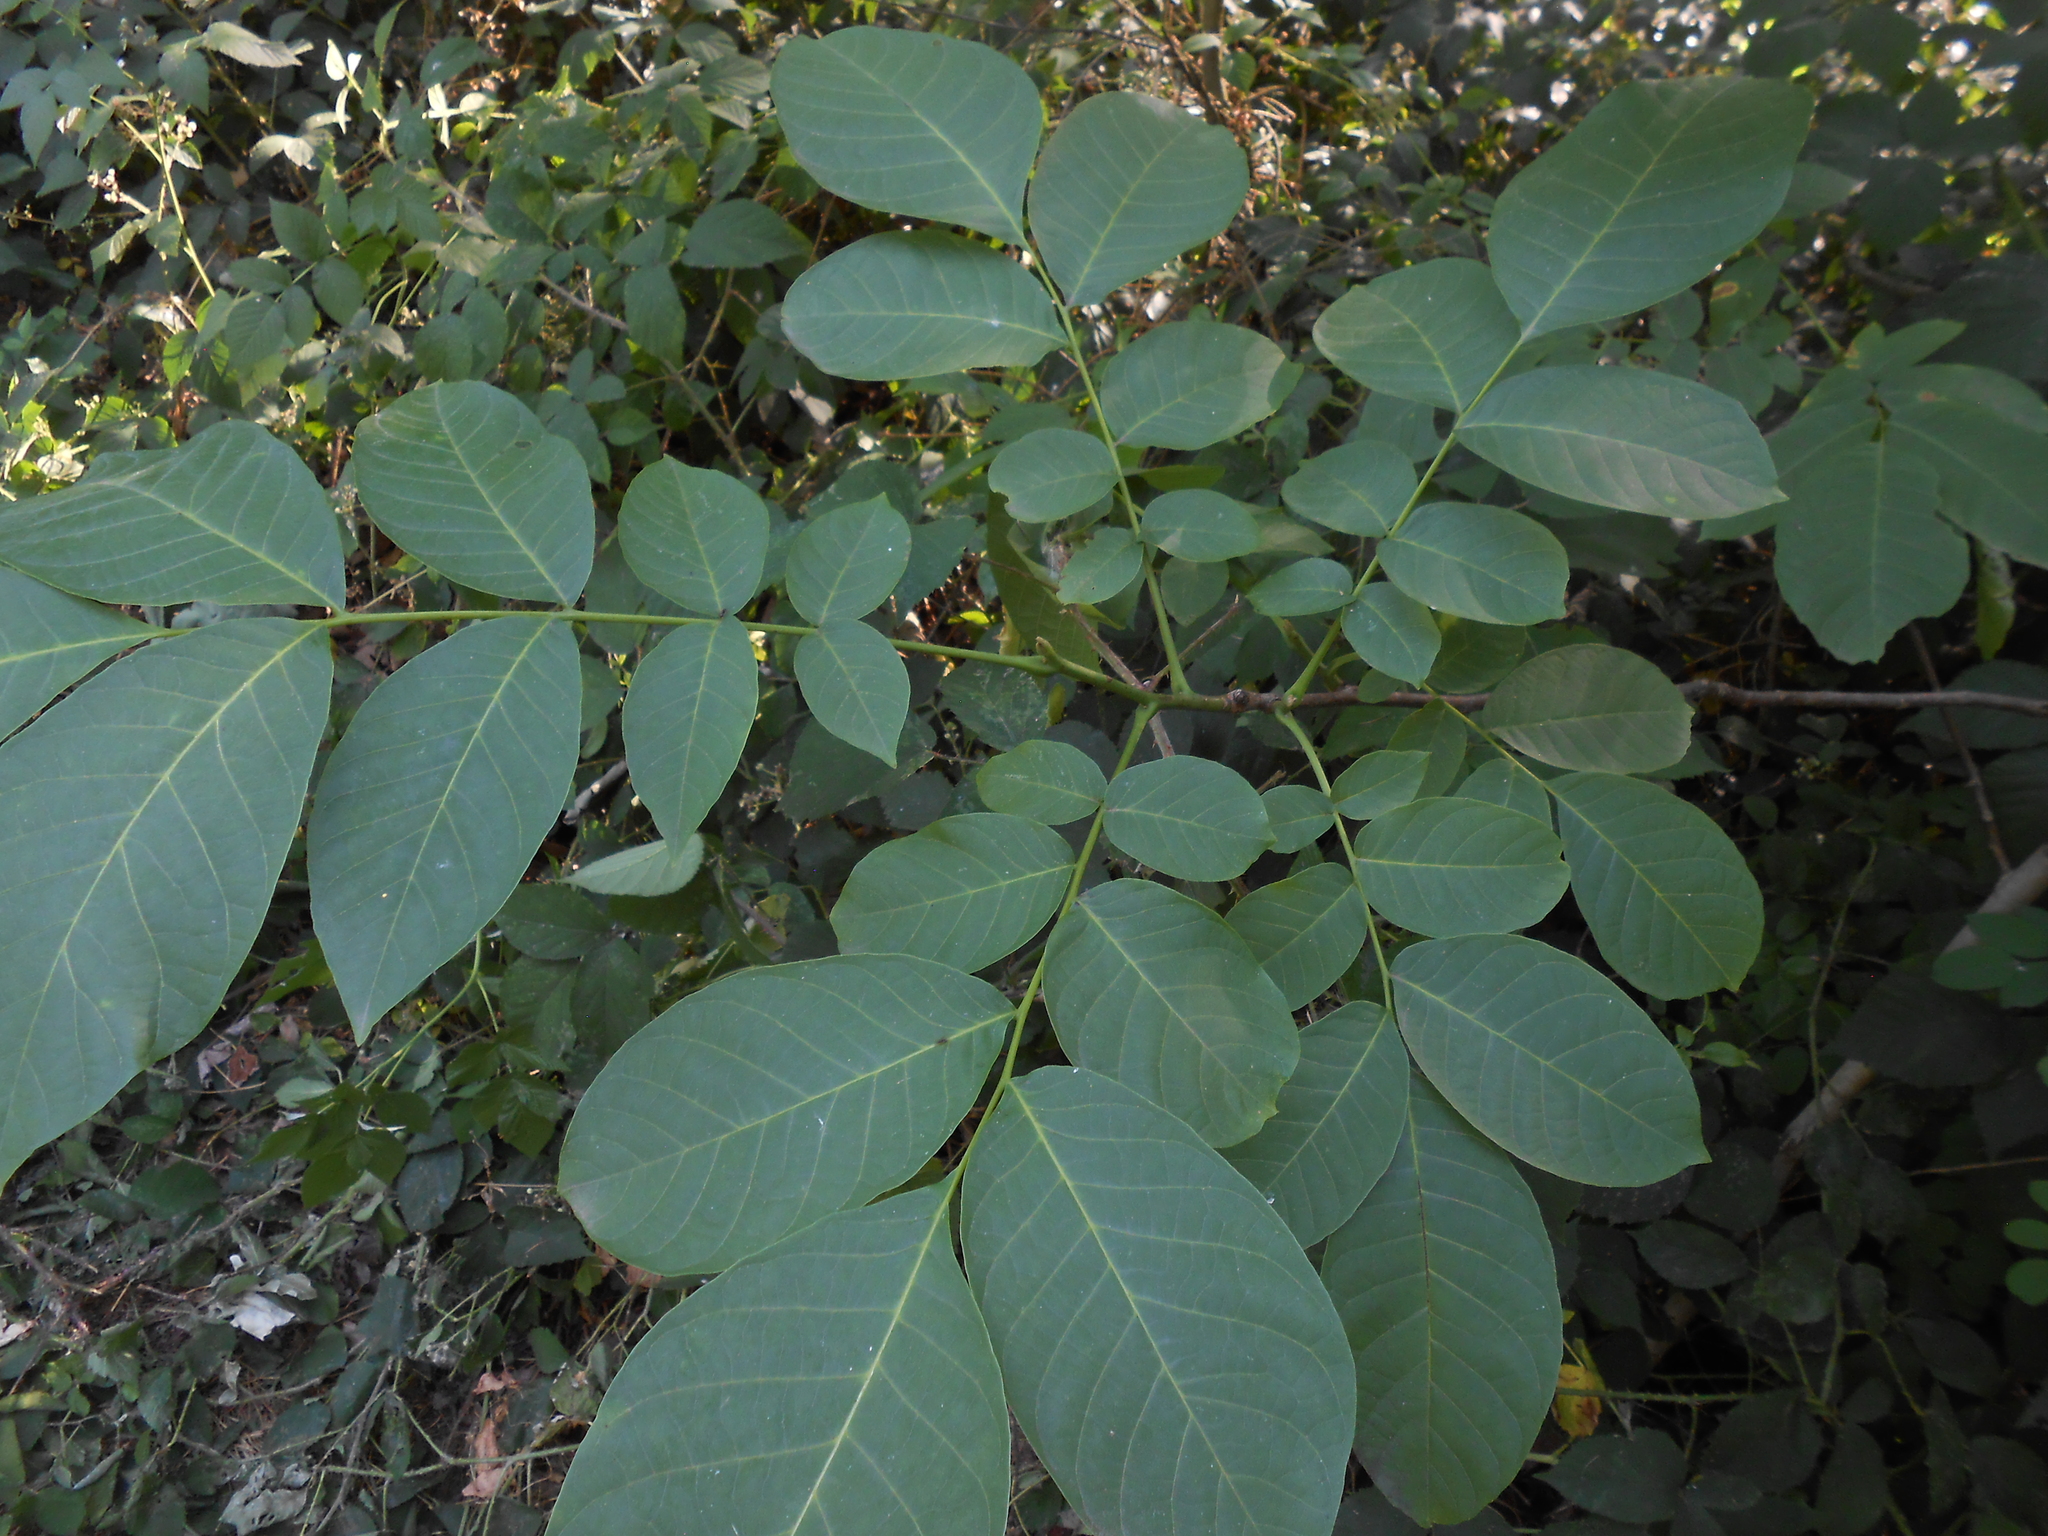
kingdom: Plantae
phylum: Tracheophyta
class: Magnoliopsida
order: Fagales
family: Juglandaceae
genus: Juglans
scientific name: Juglans regia
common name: Walnut
